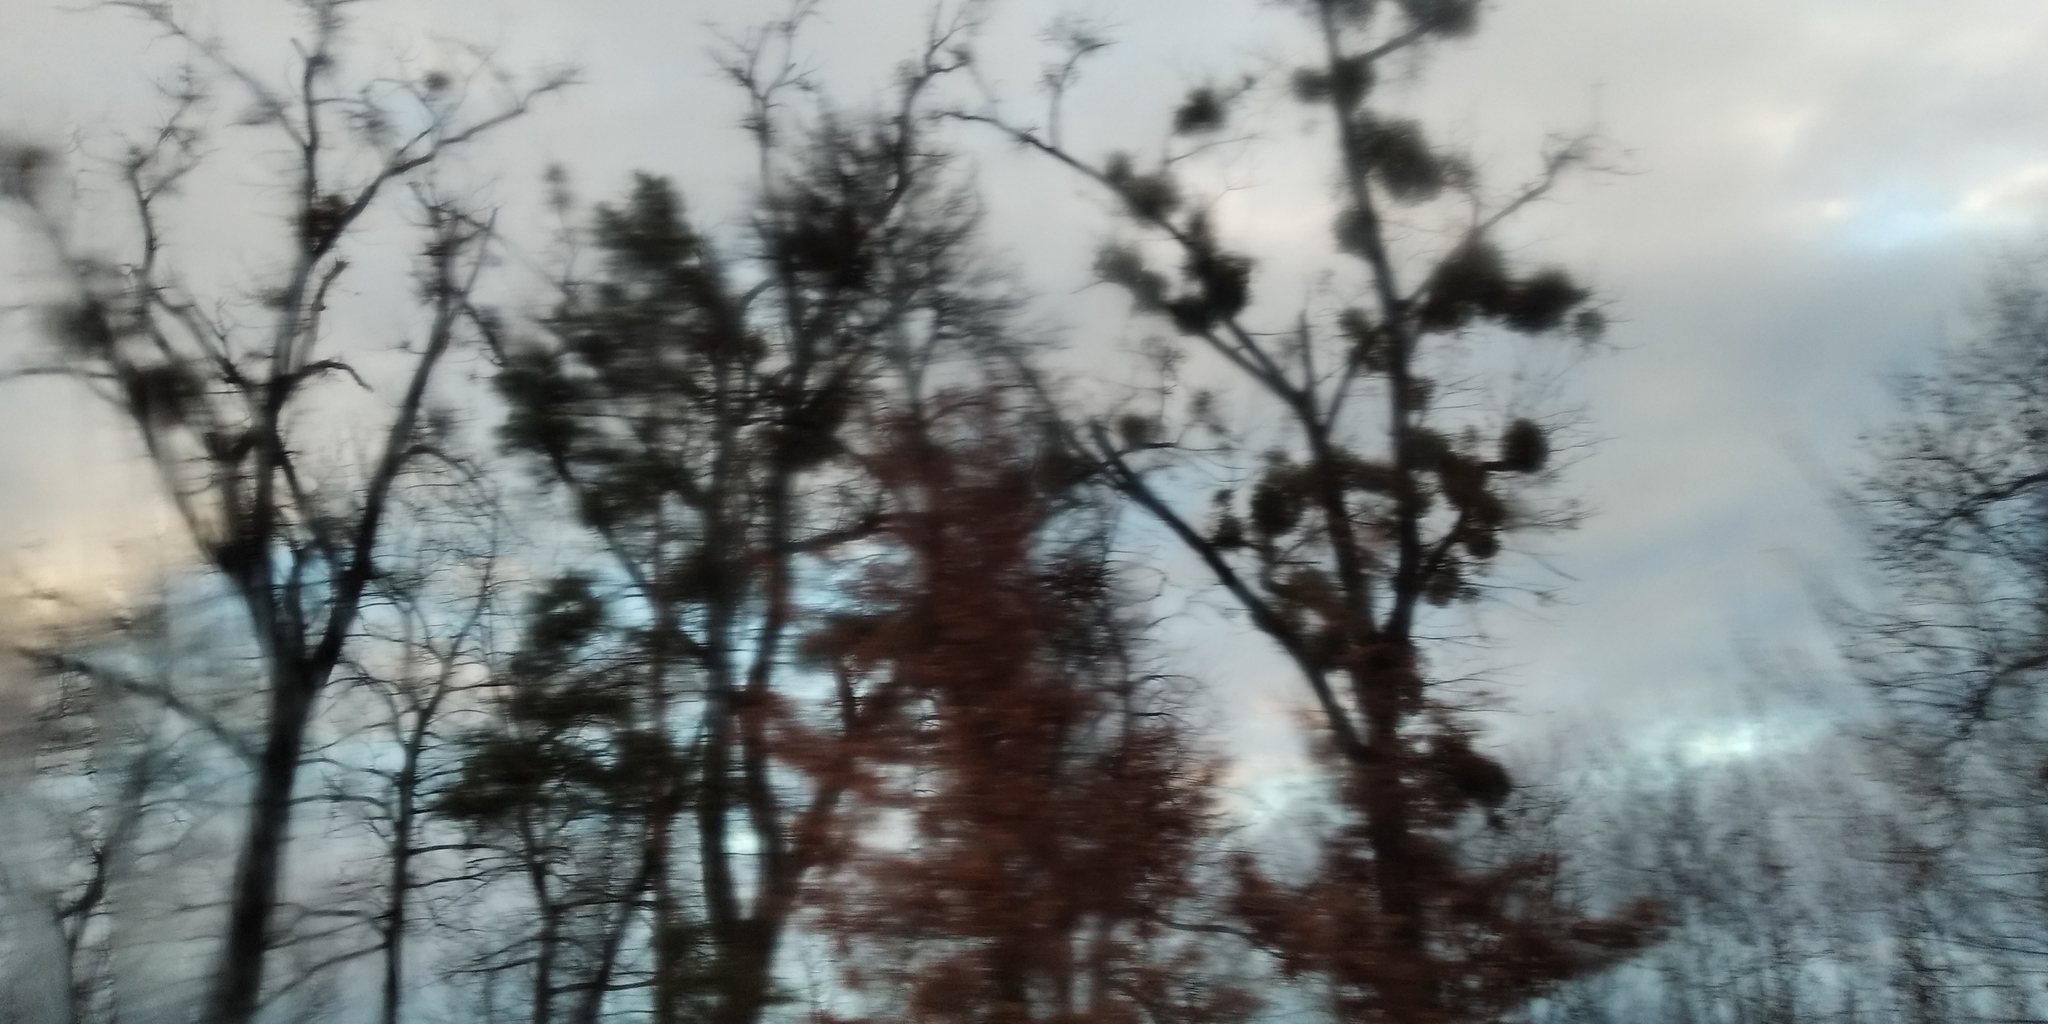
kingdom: Plantae
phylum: Tracheophyta
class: Magnoliopsida
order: Santalales
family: Viscaceae
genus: Viscum
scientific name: Viscum album
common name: Mistletoe
